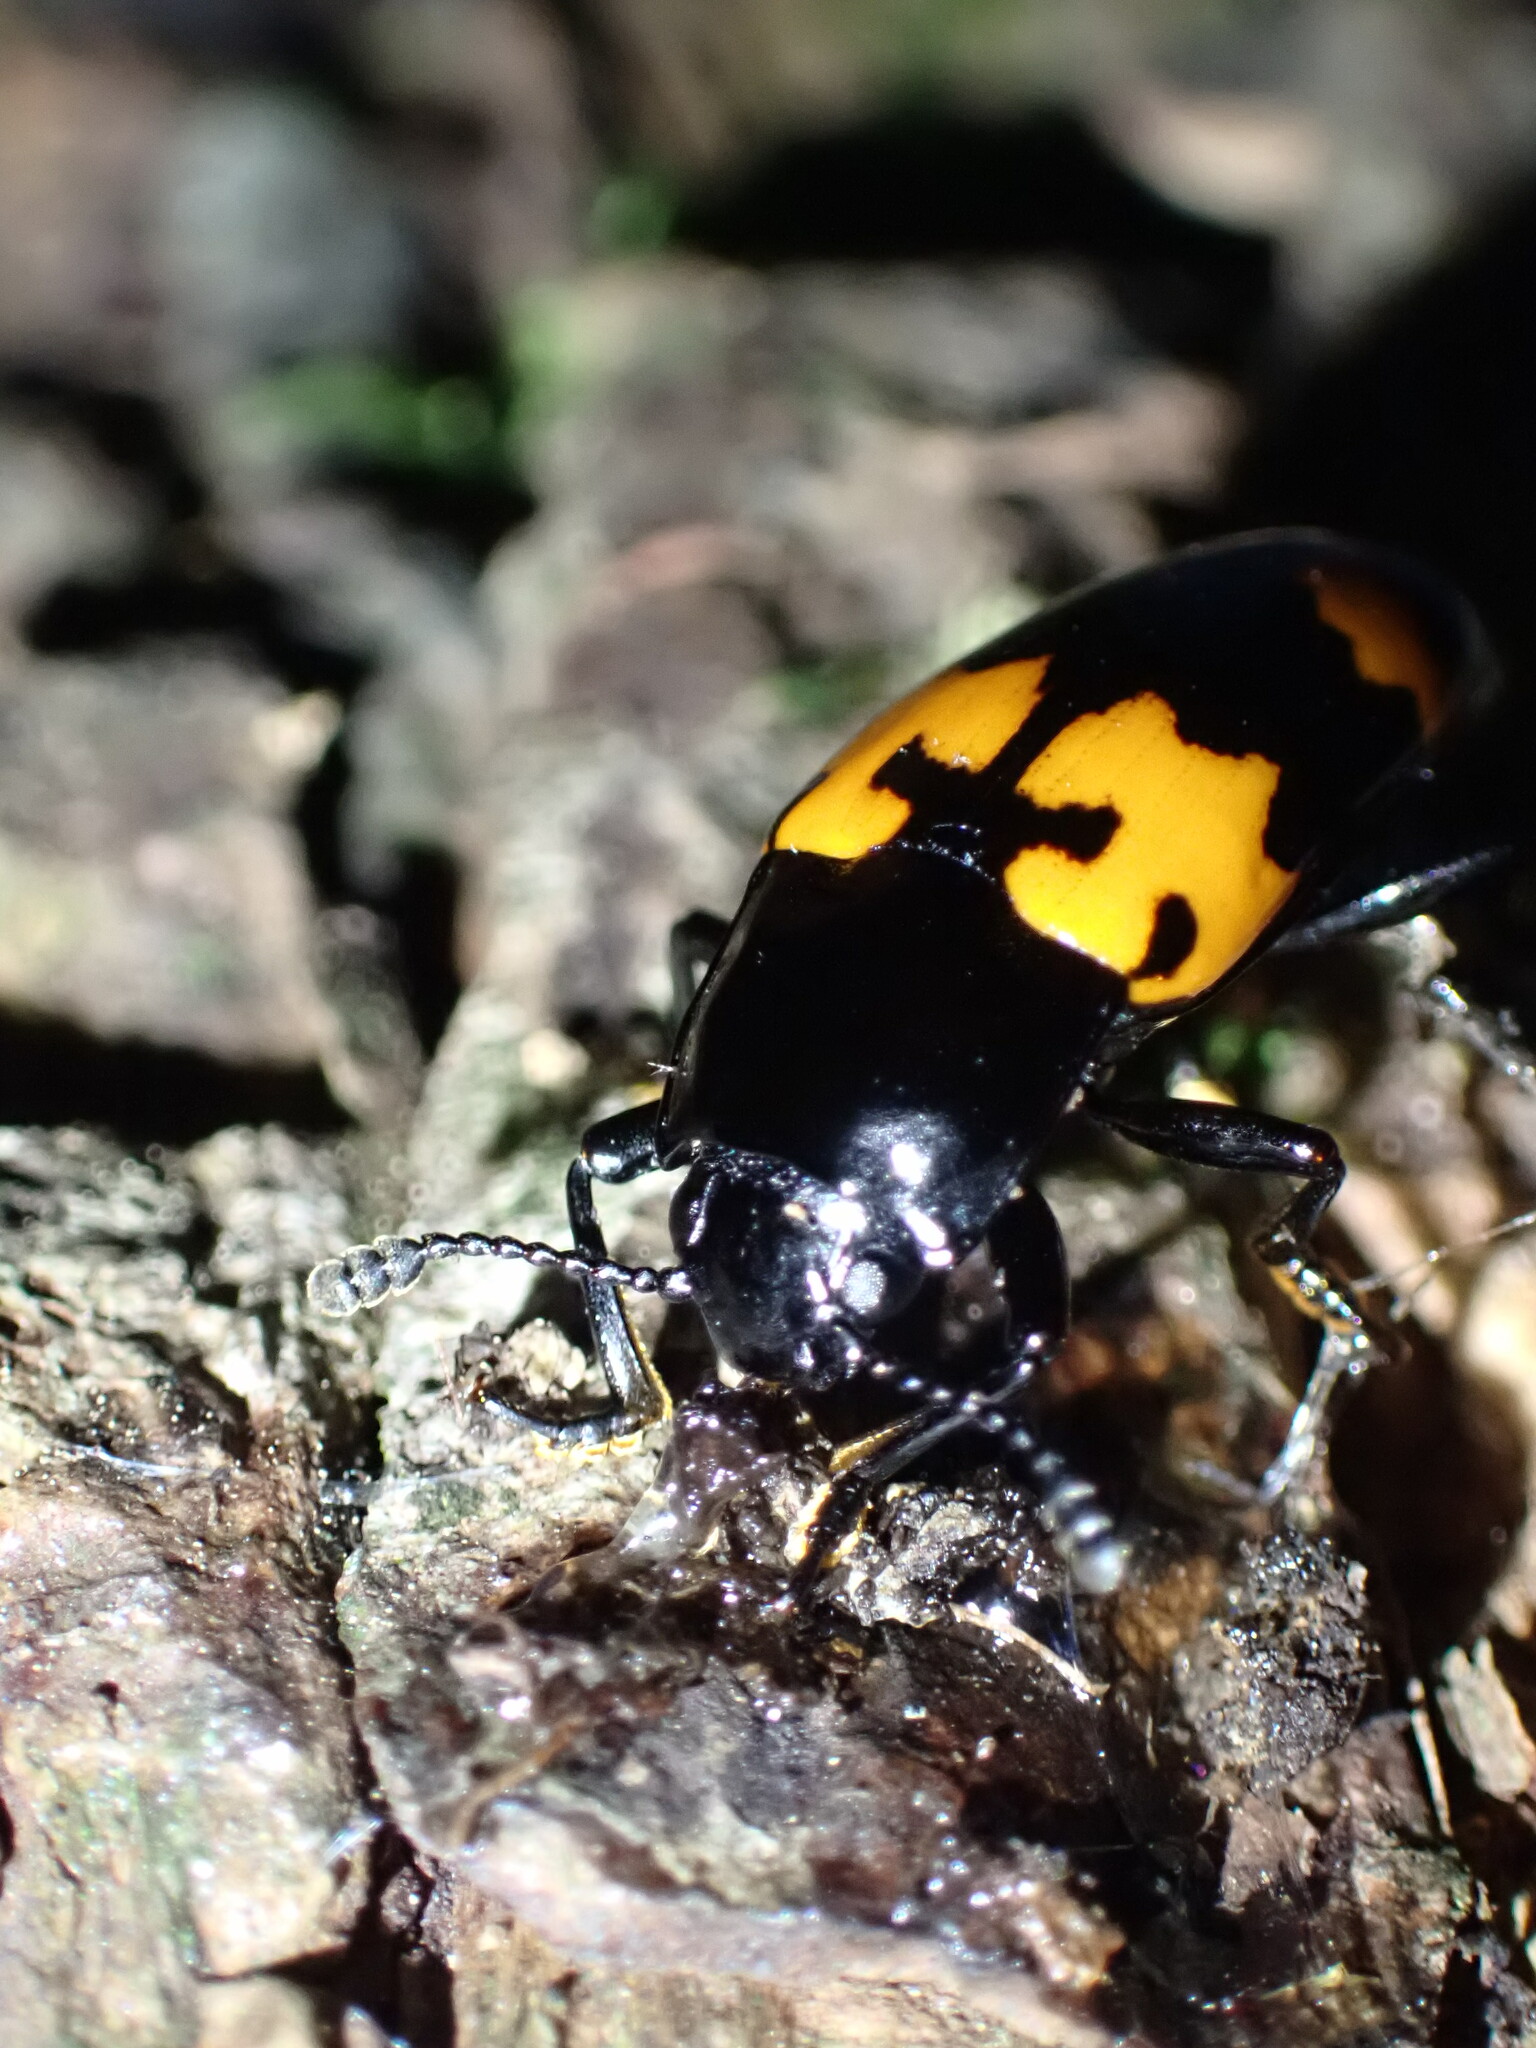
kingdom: Animalia
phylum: Arthropoda
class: Insecta
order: Coleoptera
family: Erotylidae
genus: Megalodacne
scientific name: Megalodacne heros
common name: Pleasing fungus beetle
